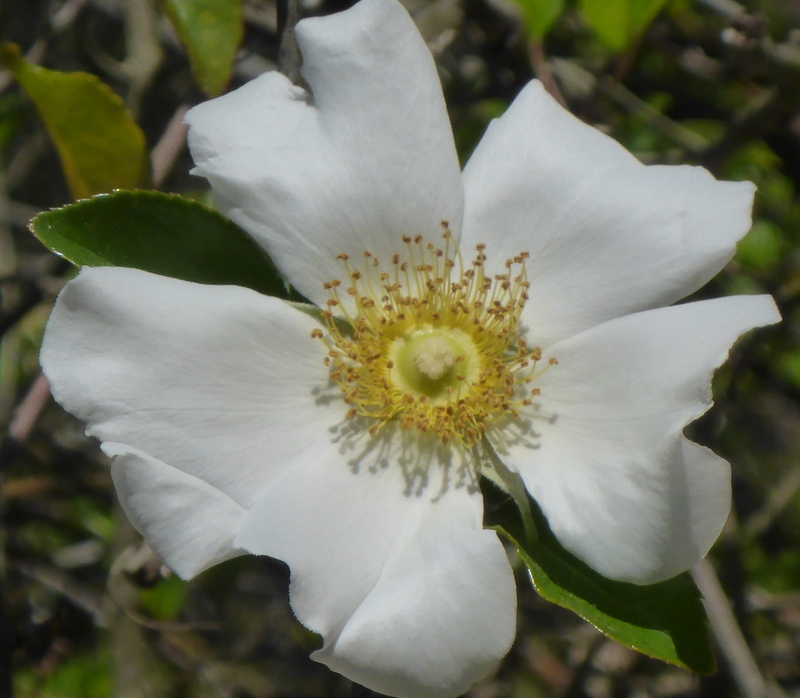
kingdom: Plantae
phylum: Tracheophyta
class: Magnoliopsida
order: Rosales
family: Rosaceae
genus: Rosa
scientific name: Rosa laevigata
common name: Cherokee rose
